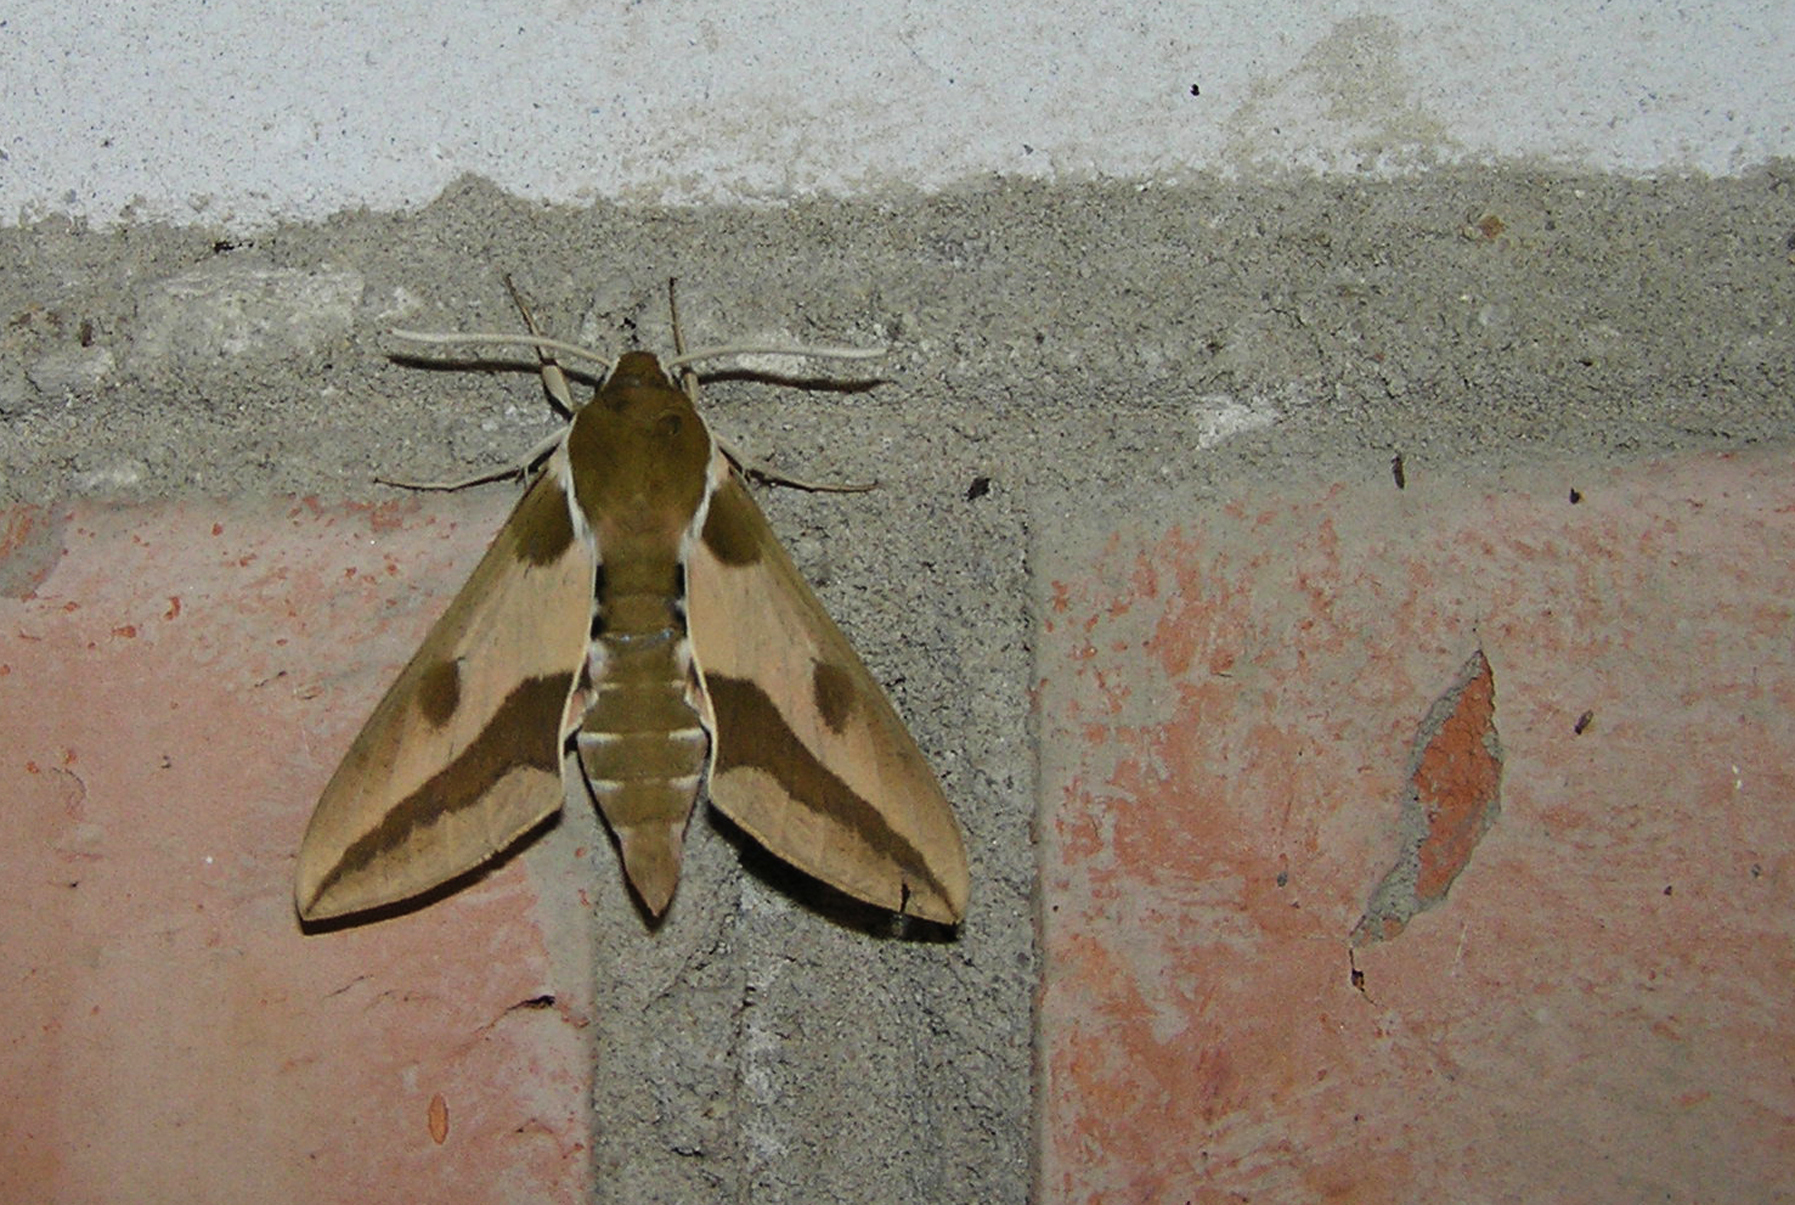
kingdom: Animalia
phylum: Arthropoda
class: Insecta
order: Lepidoptera
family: Sphingidae
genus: Hyles
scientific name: Hyles euphorbiae
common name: Spurge hawk-moth
